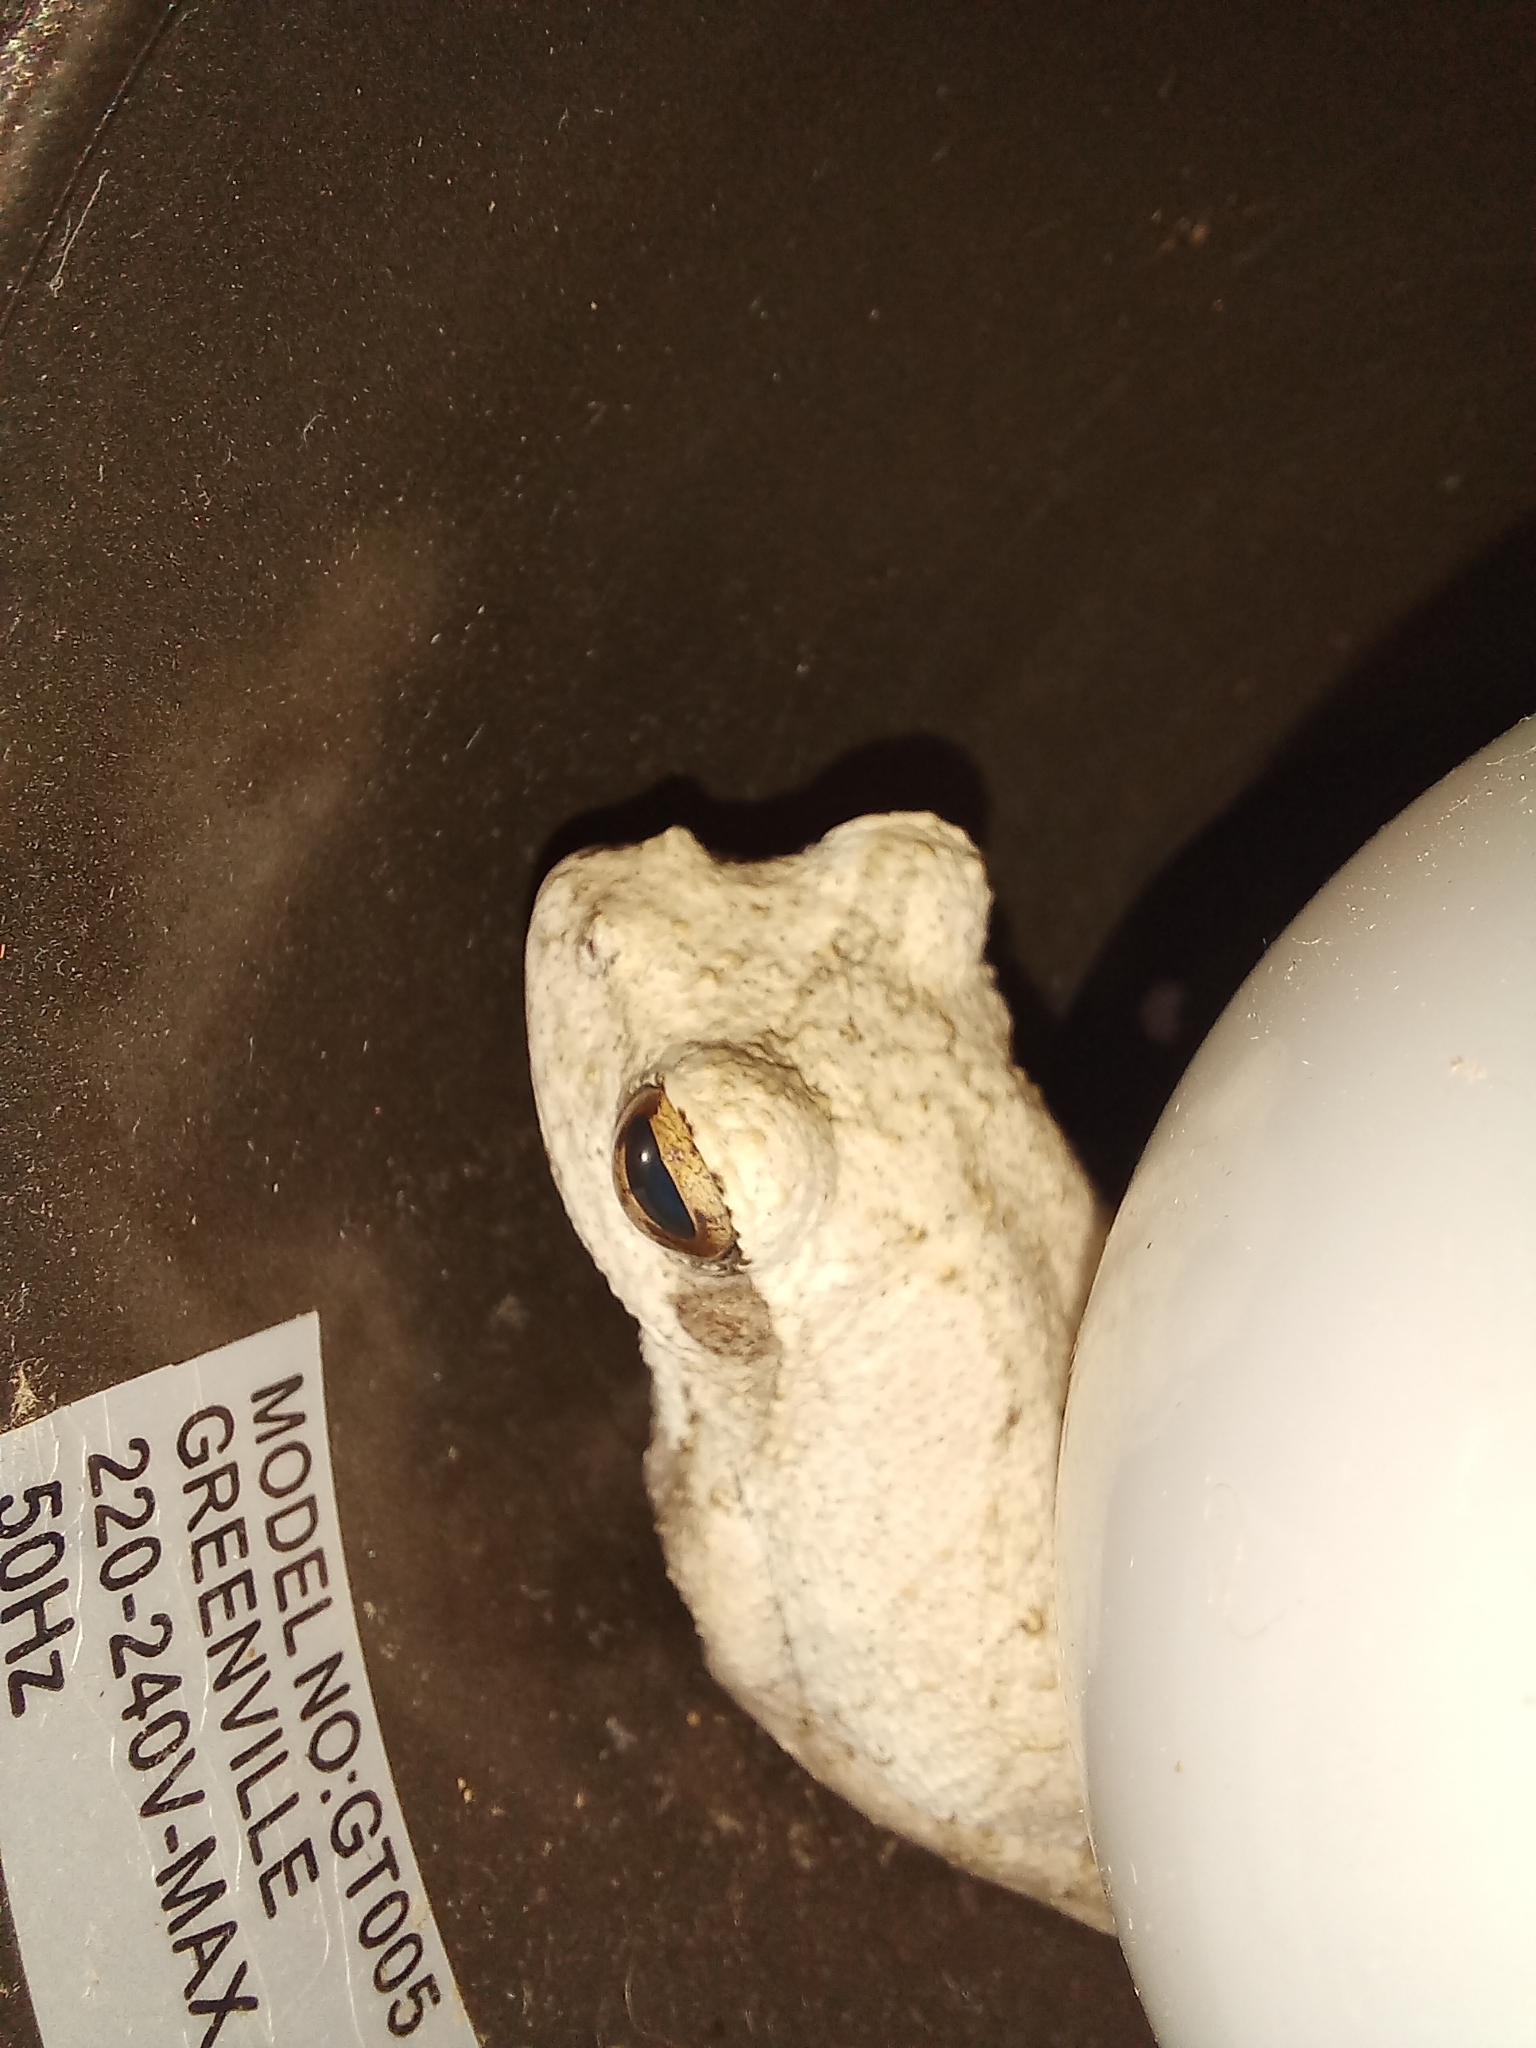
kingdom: Animalia
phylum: Chordata
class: Amphibia
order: Anura
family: Rhacophoridae
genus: Chiromantis
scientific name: Chiromantis xerampelina
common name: African gray treefrog
